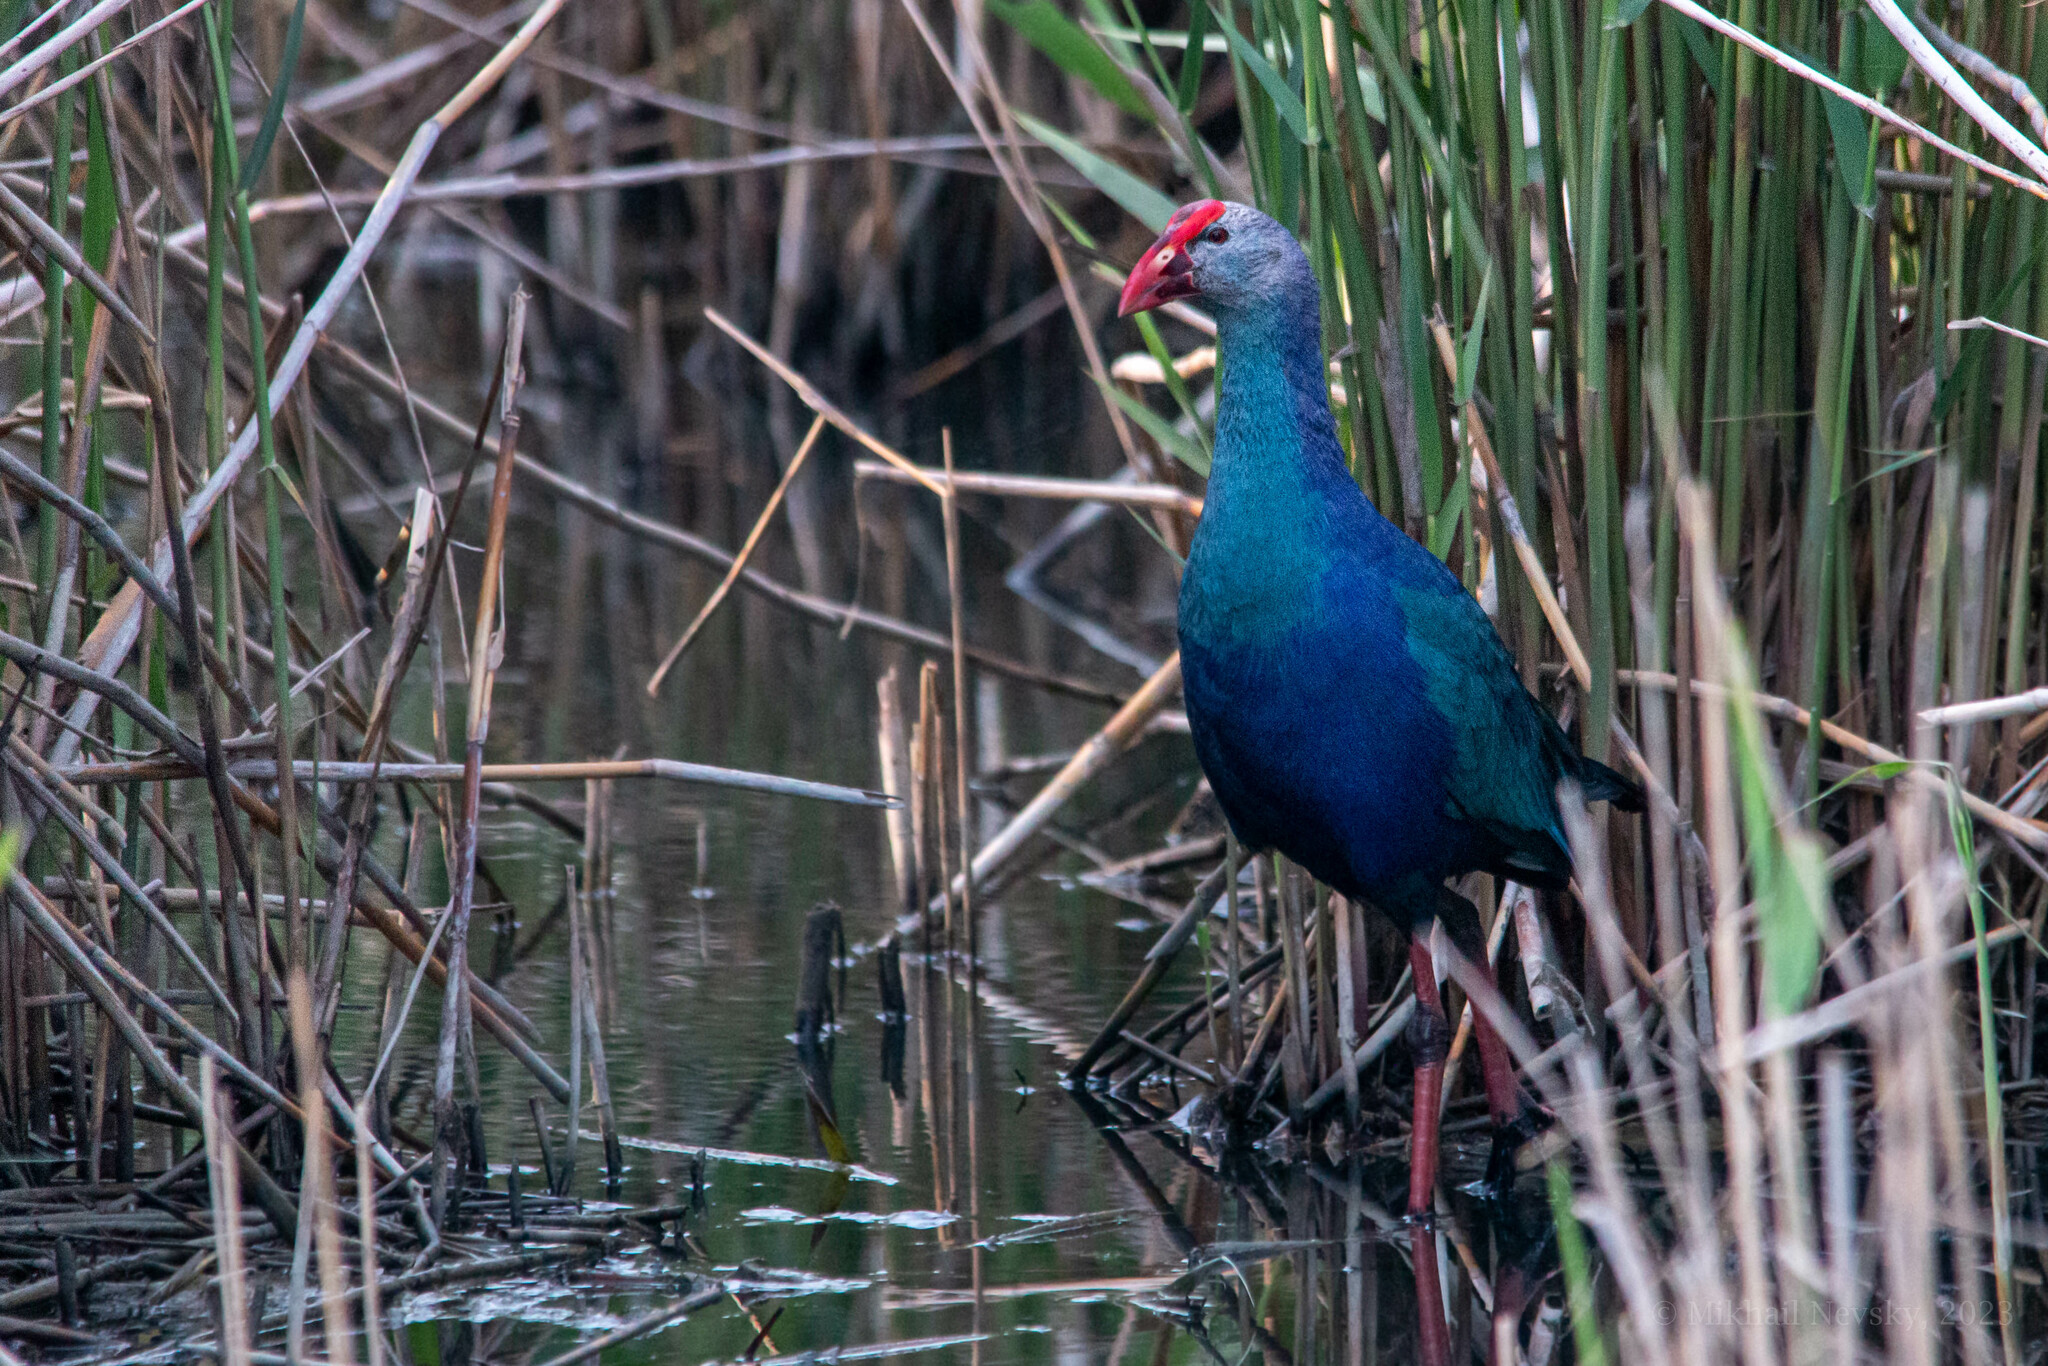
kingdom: Animalia
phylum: Chordata
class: Aves
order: Gruiformes
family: Rallidae
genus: Porphyrio
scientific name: Porphyrio porphyrio
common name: Purple swamphen
